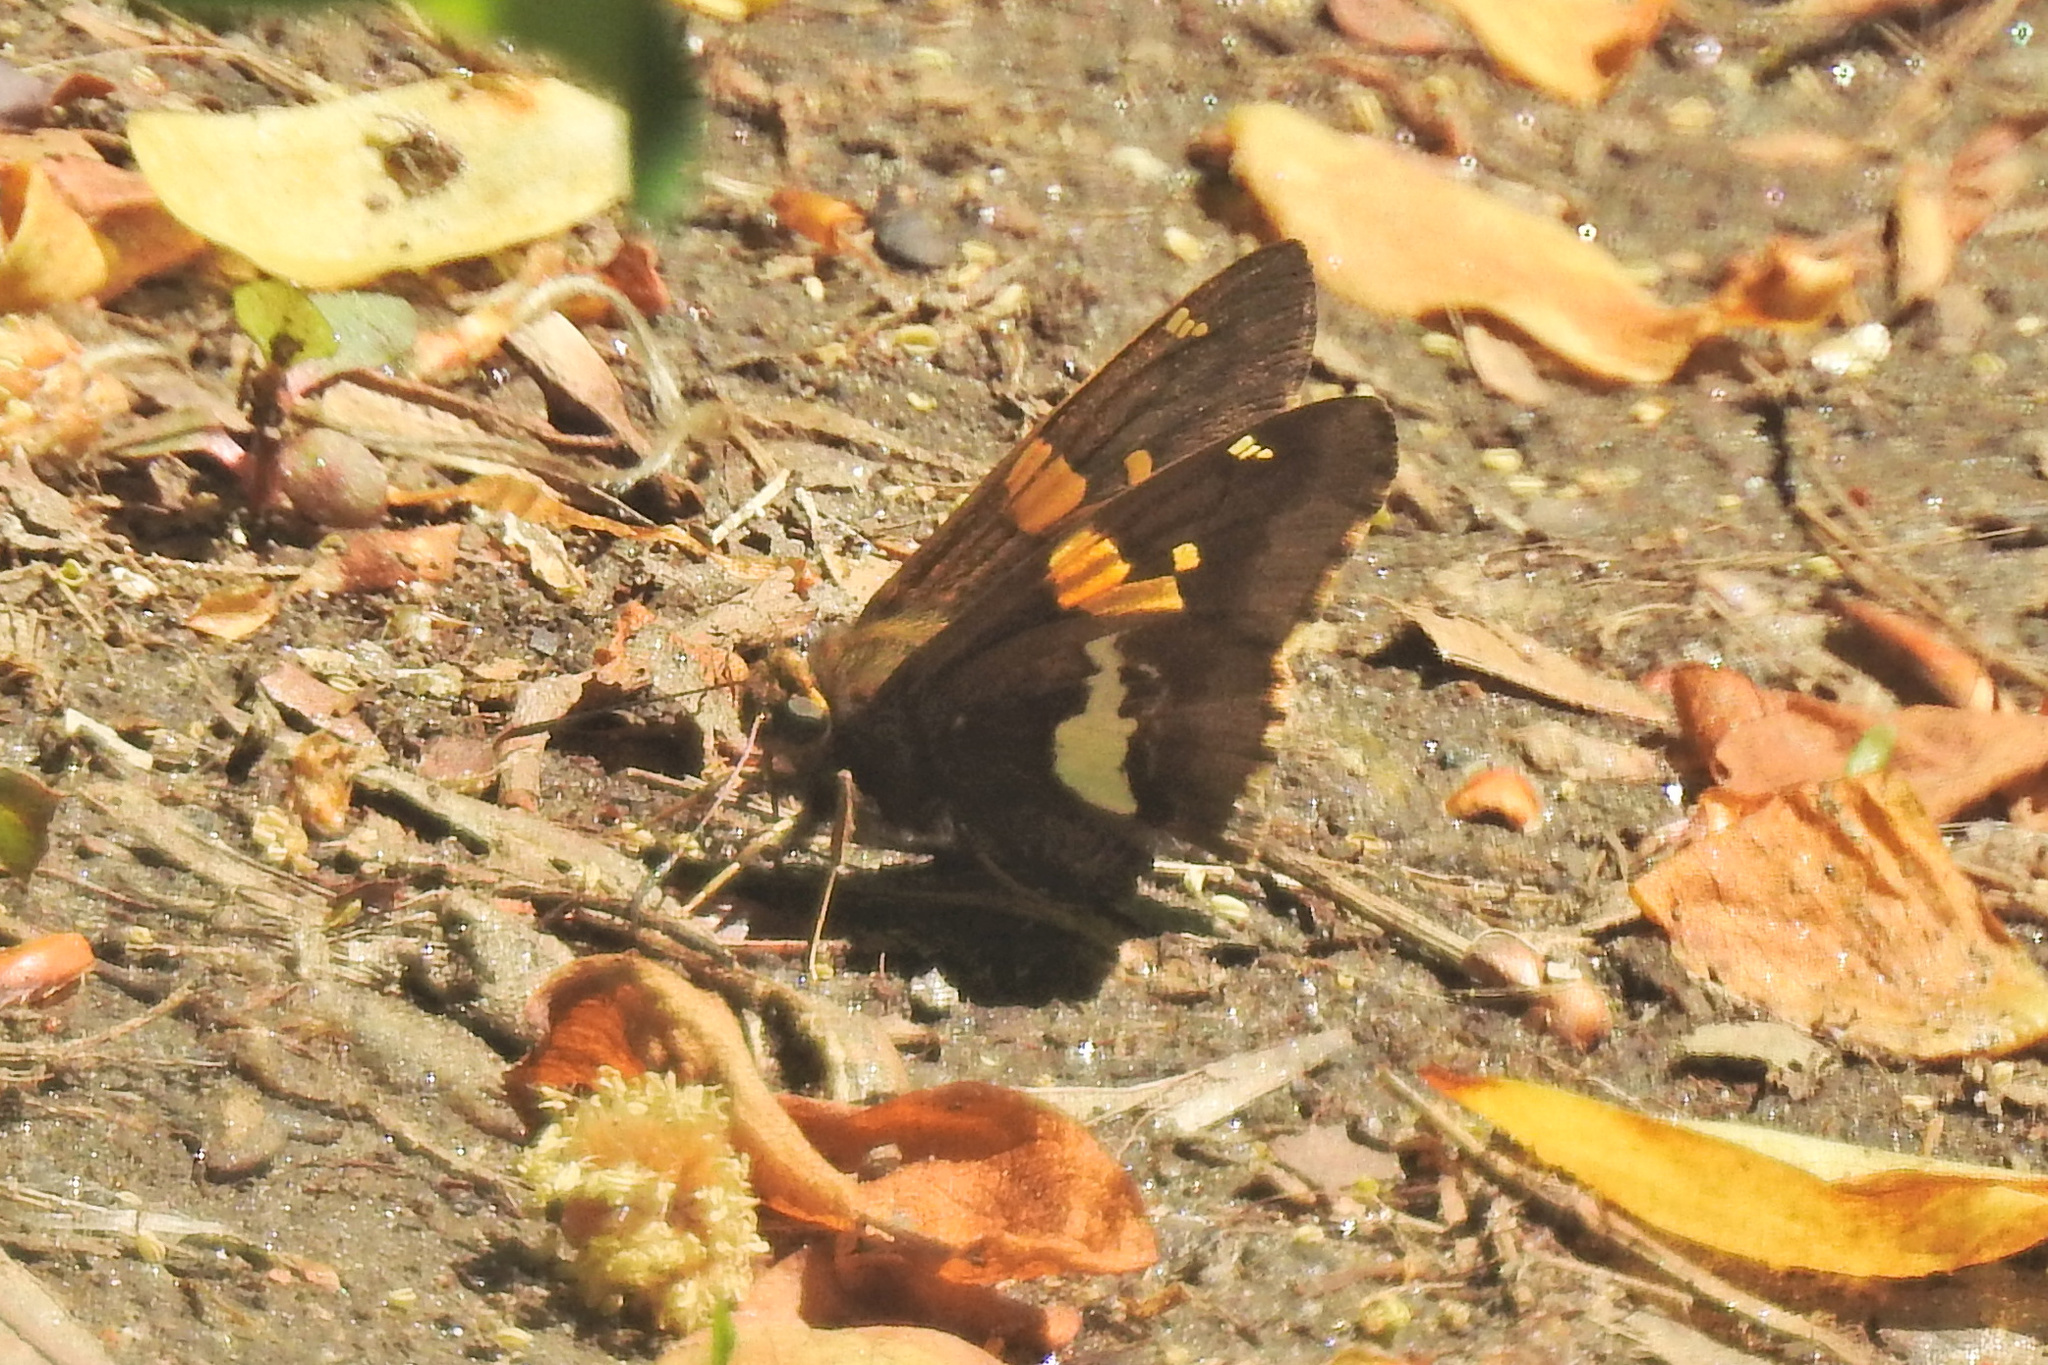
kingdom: Animalia
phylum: Arthropoda
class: Insecta
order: Lepidoptera
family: Hesperiidae
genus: Epargyreus
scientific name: Epargyreus clarus
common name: Silver-spotted skipper
